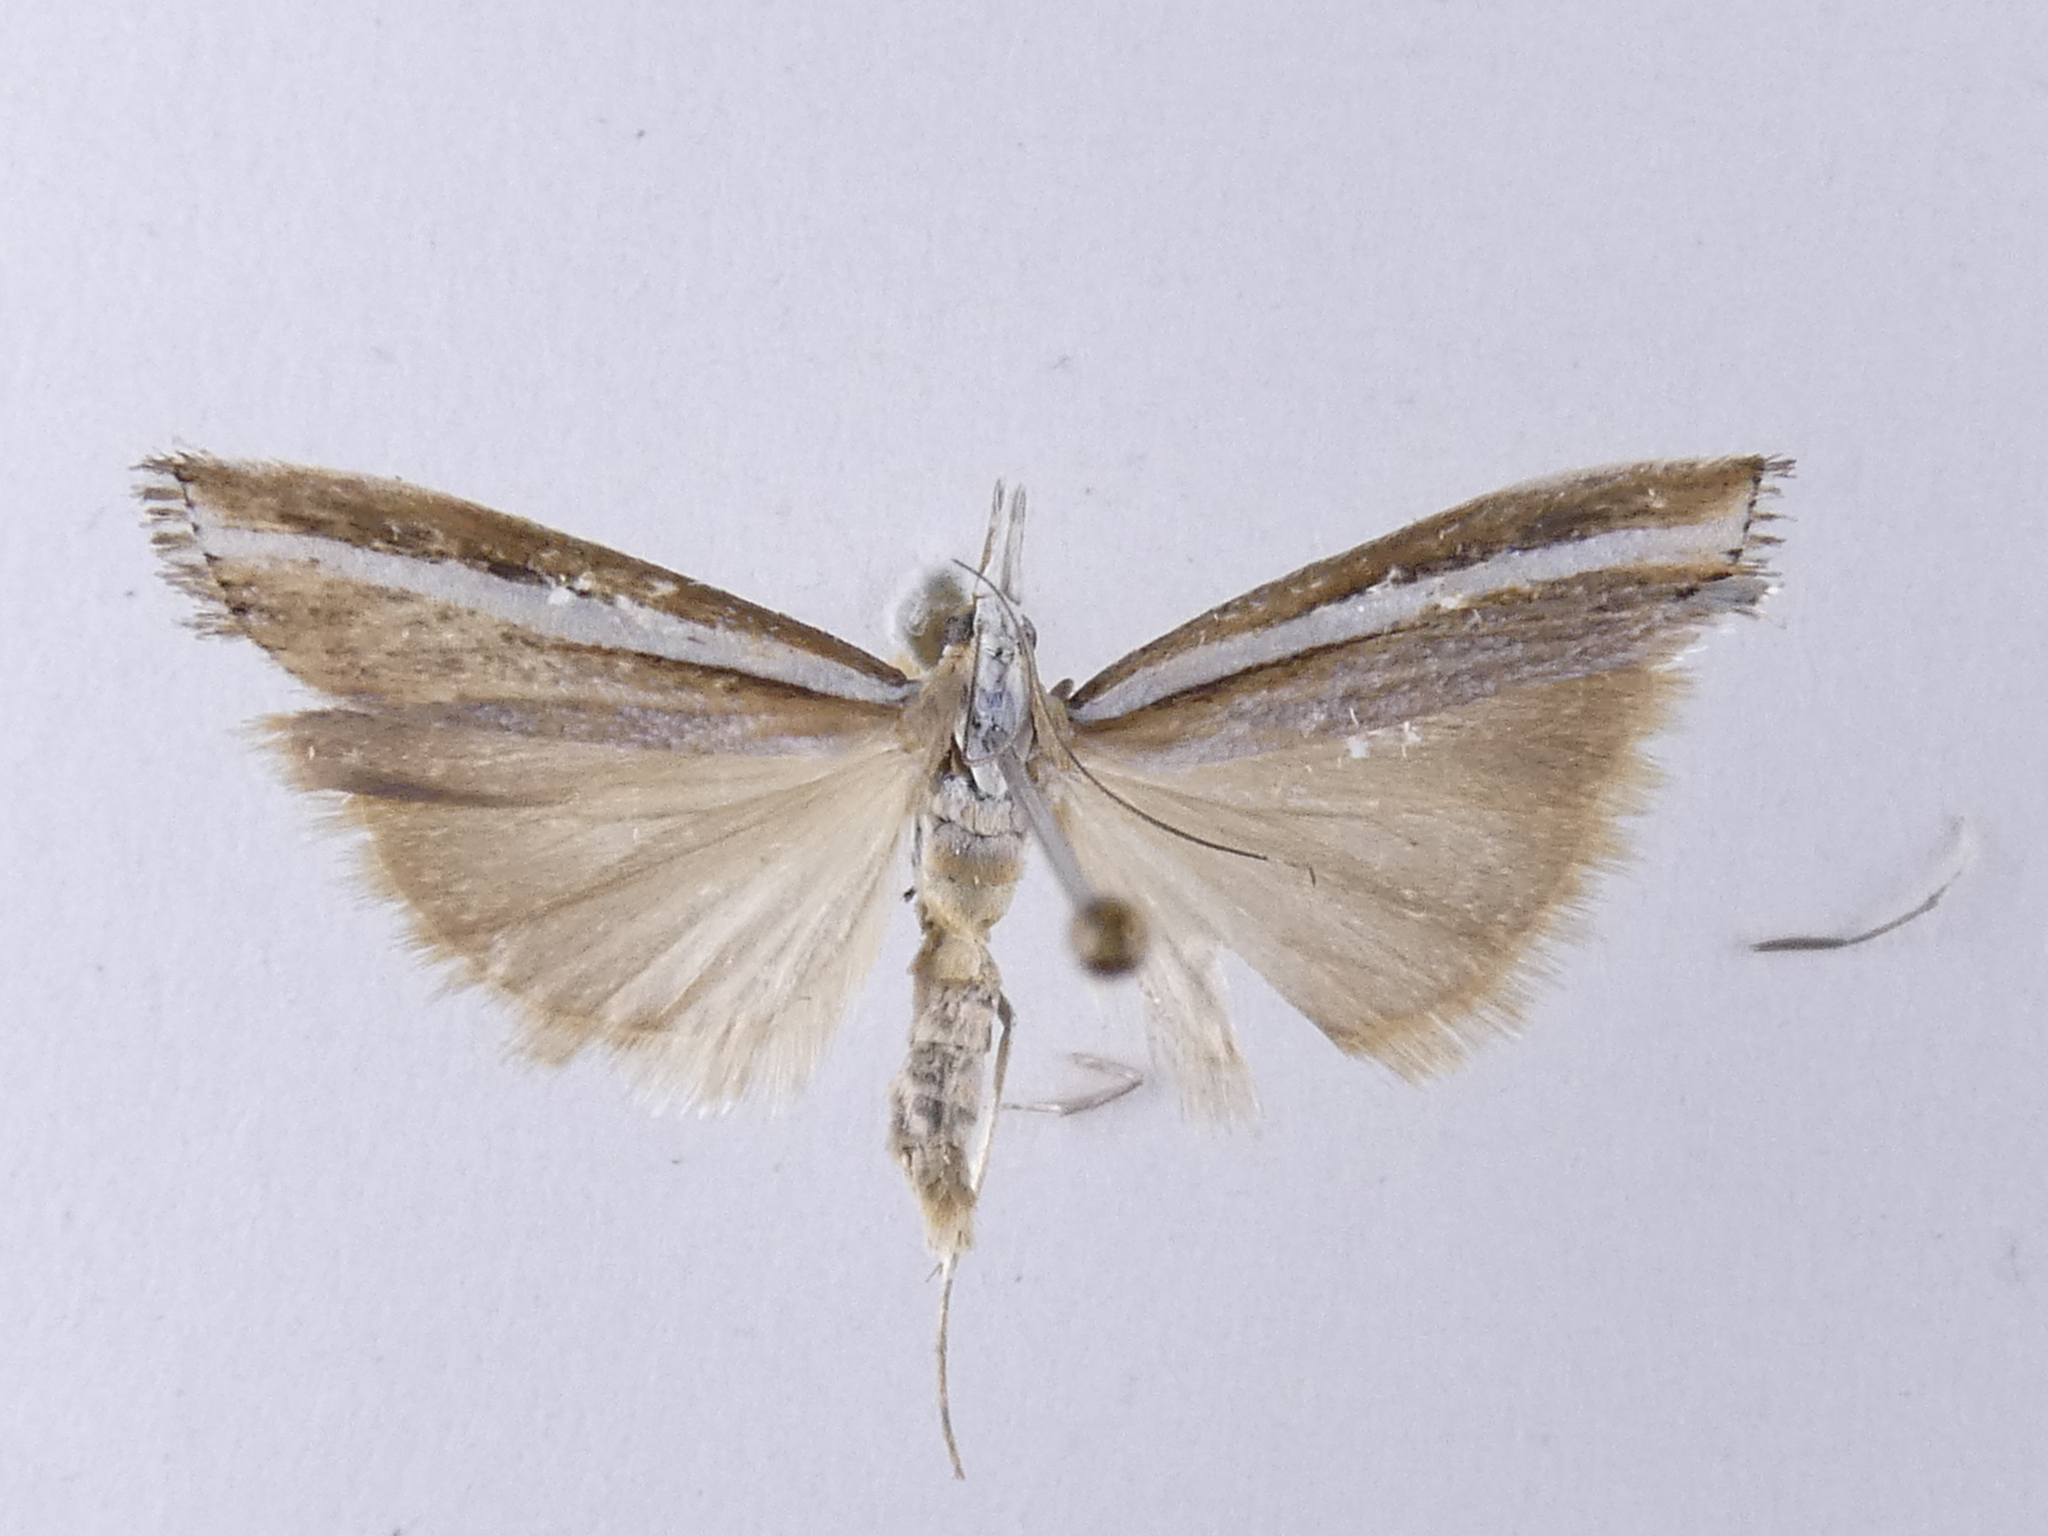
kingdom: Animalia
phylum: Arthropoda
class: Insecta
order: Lepidoptera
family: Crambidae
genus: Orocrambus
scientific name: Orocrambus vittellus
